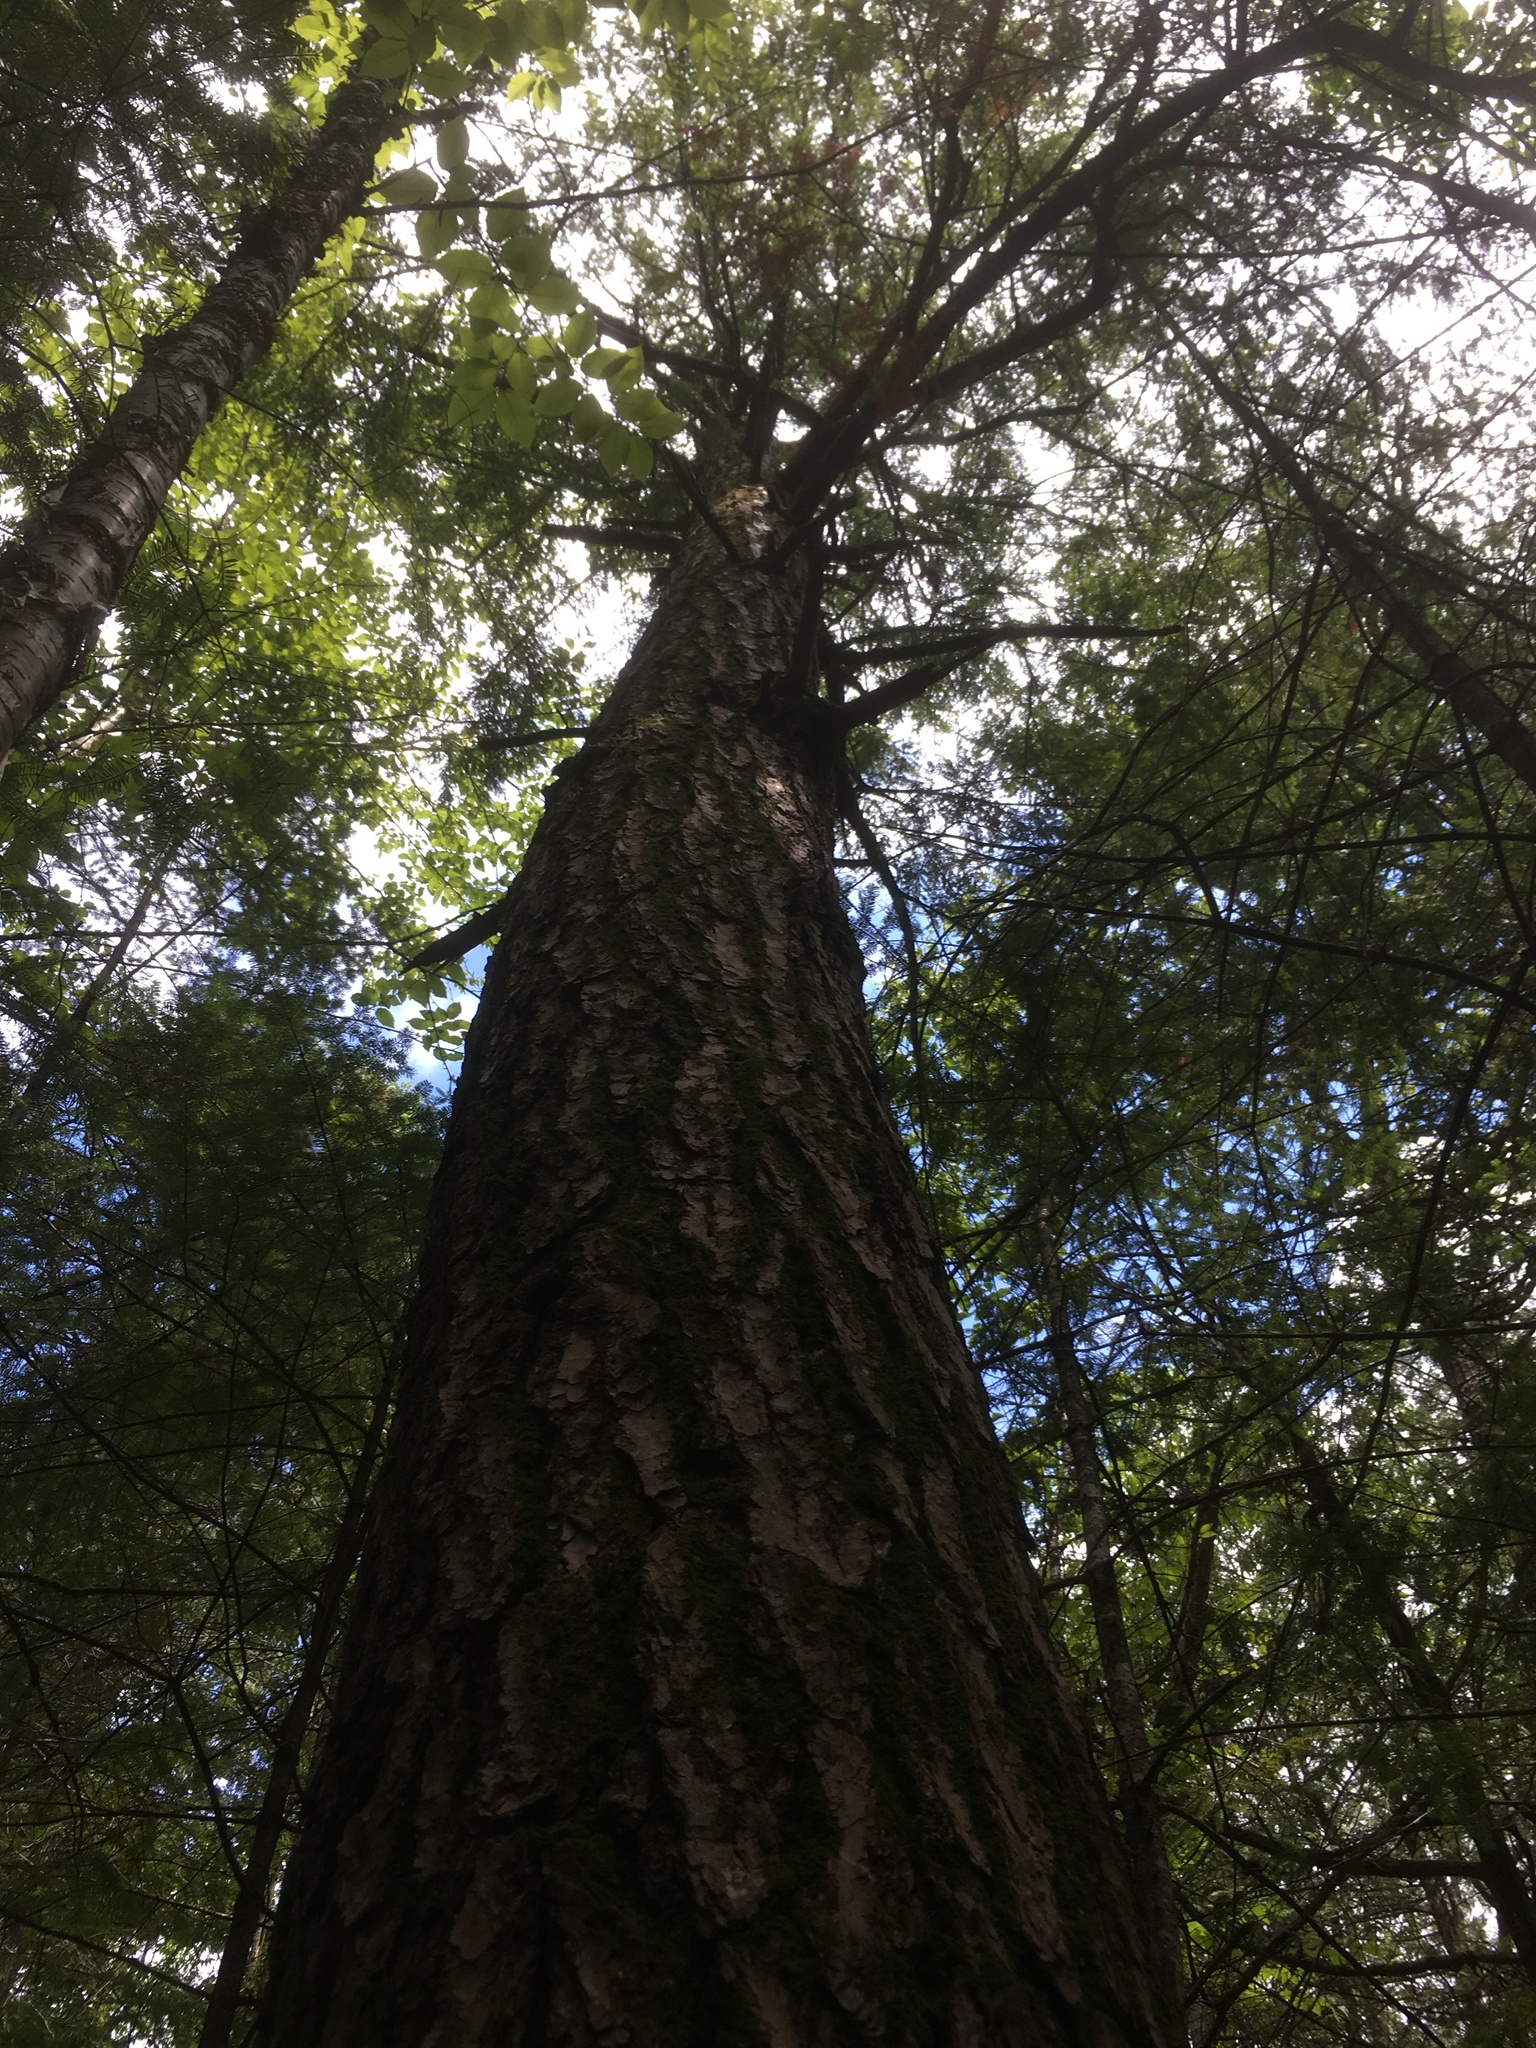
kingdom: Plantae
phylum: Tracheophyta
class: Pinopsida
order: Pinales
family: Pinaceae
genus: Tsuga
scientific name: Tsuga canadensis
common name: Eastern hemlock
